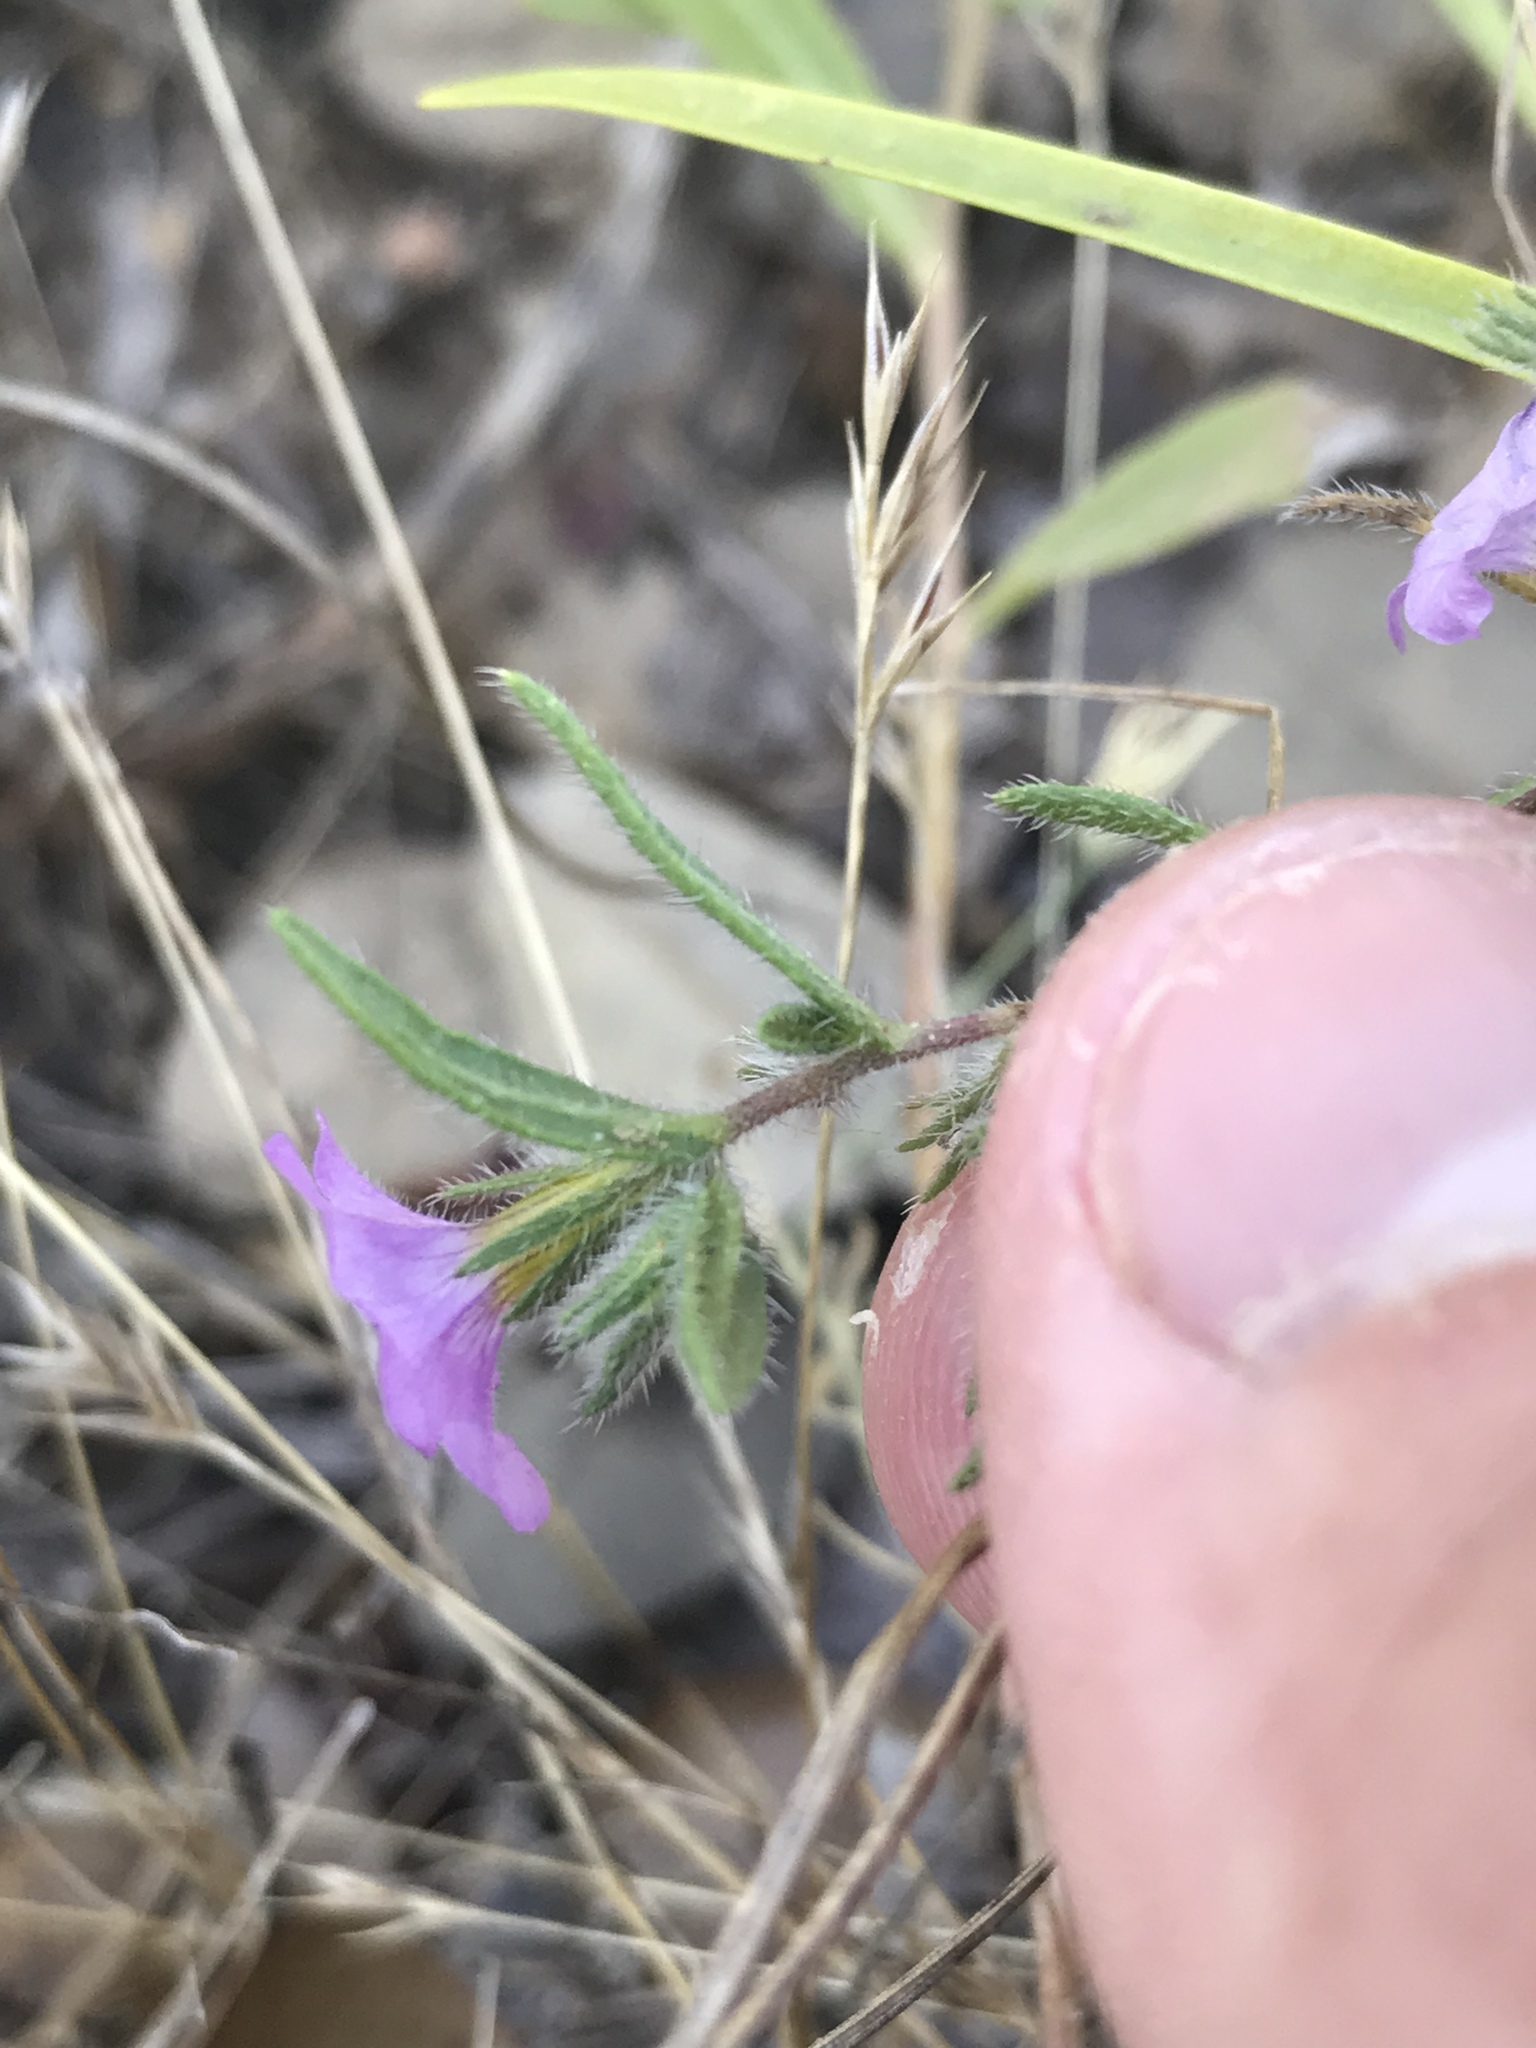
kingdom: Plantae
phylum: Tracheophyta
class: Magnoliopsida
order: Boraginales
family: Namaceae
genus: Nama
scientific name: Nama hispida
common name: Bristly nama
